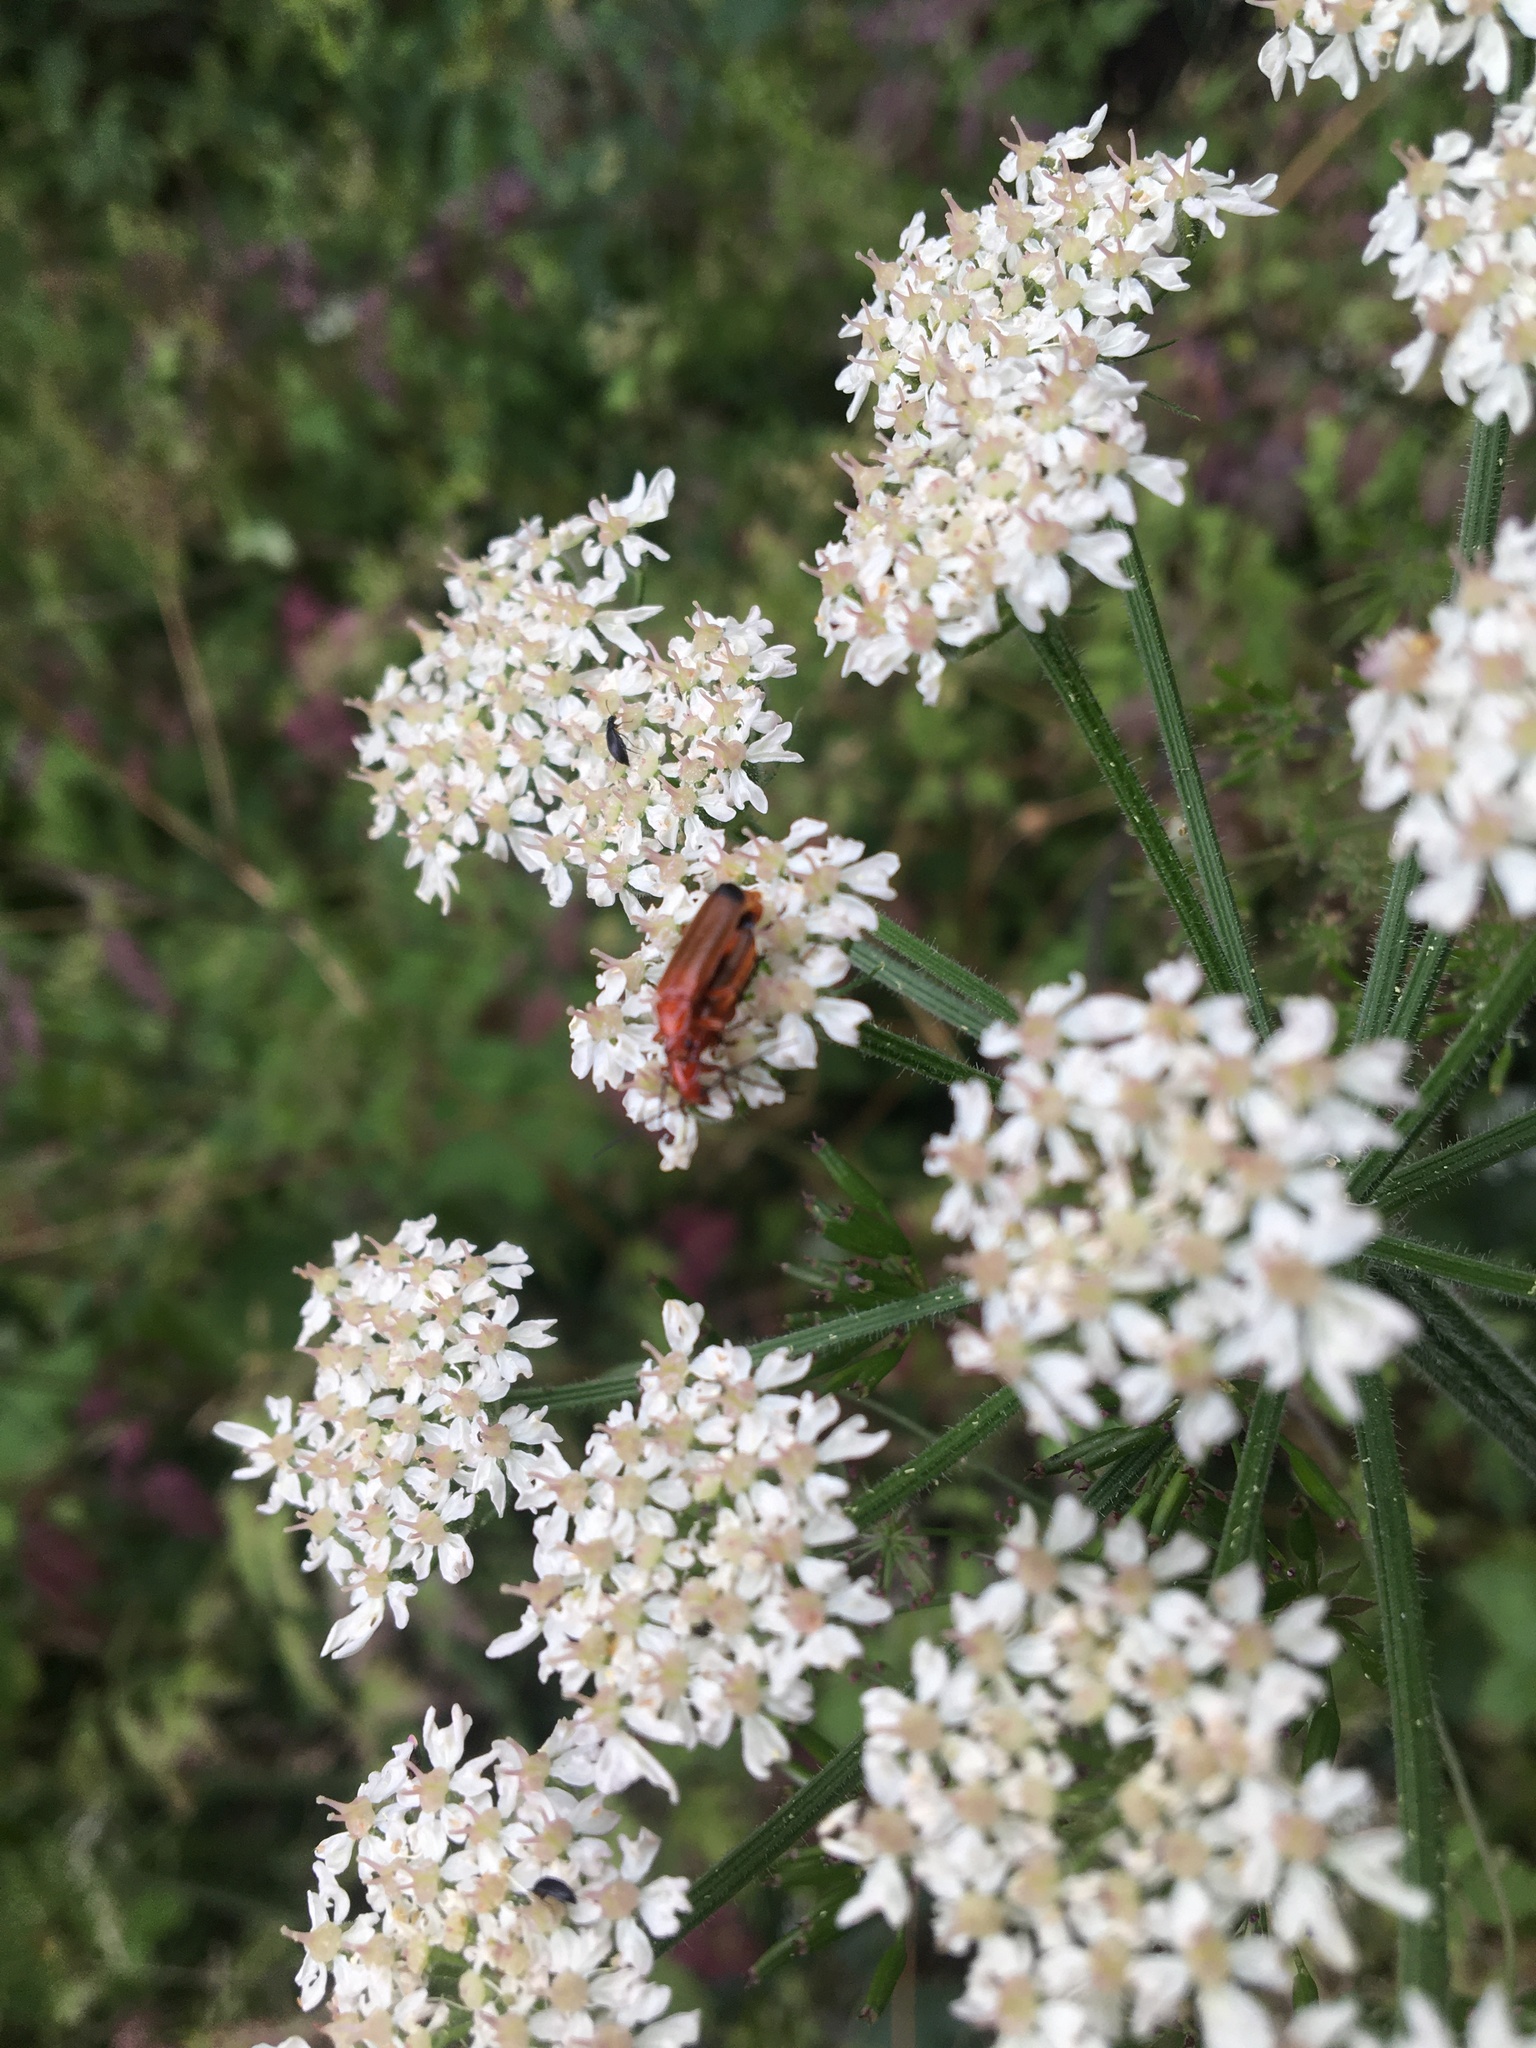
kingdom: Animalia
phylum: Arthropoda
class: Insecta
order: Coleoptera
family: Cantharidae
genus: Rhagonycha
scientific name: Rhagonycha fulva
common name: Common red soldier beetle
